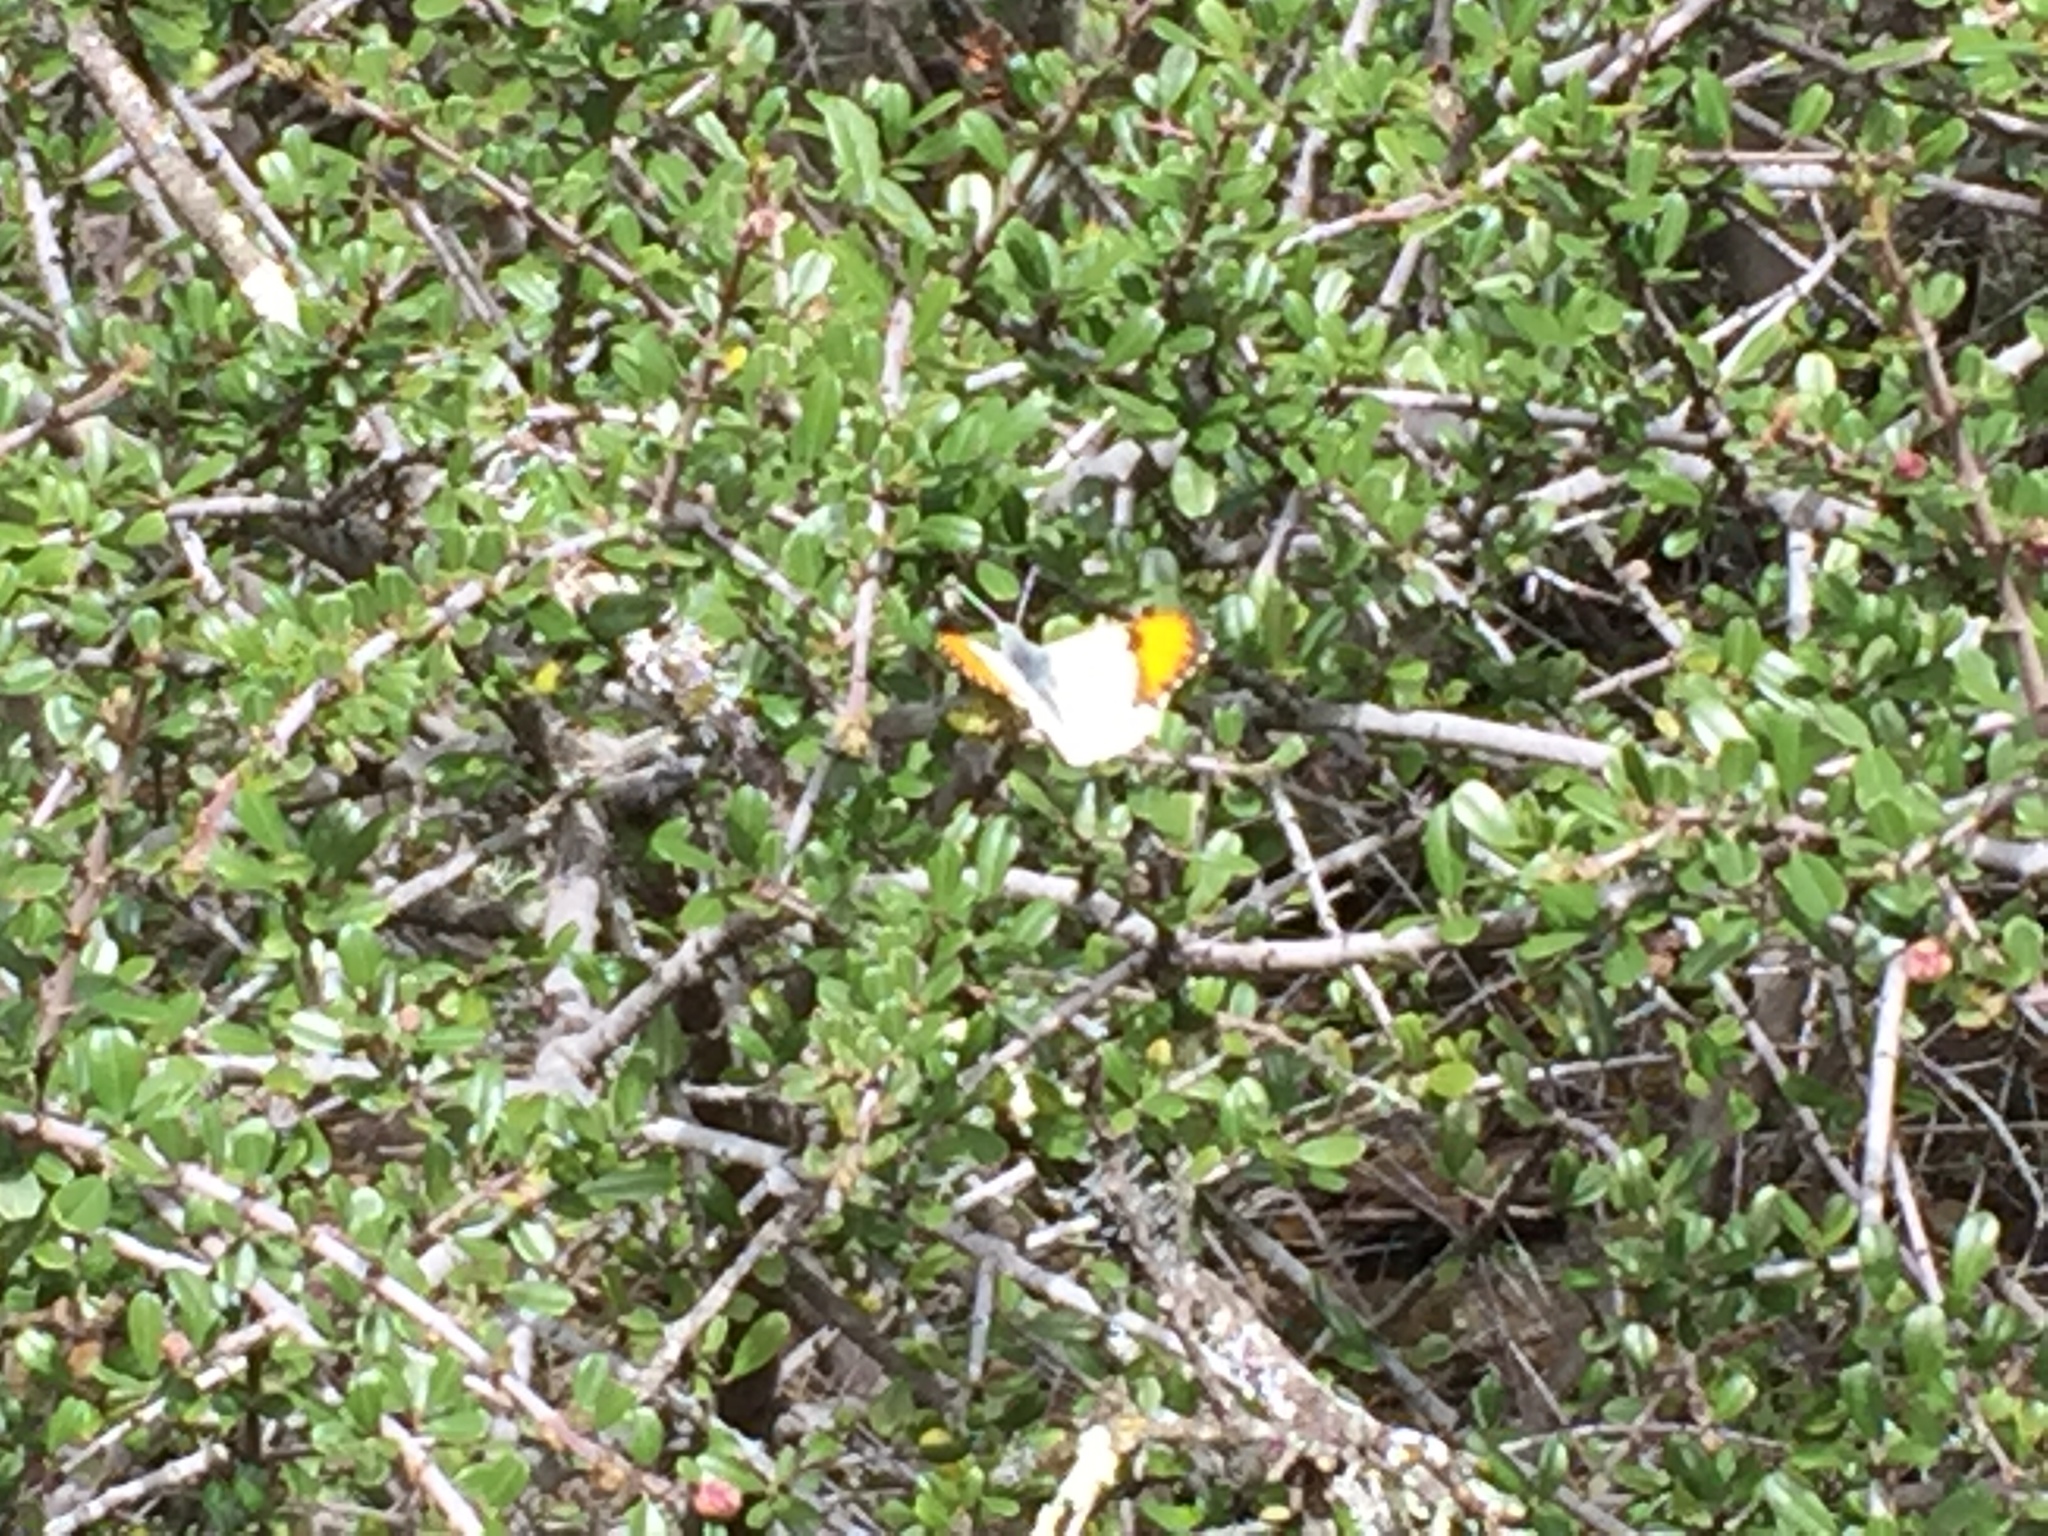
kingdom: Animalia
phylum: Arthropoda
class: Insecta
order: Lepidoptera
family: Pieridae
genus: Anthocharis
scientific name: Anthocharis sara
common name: Sara's orangetip
